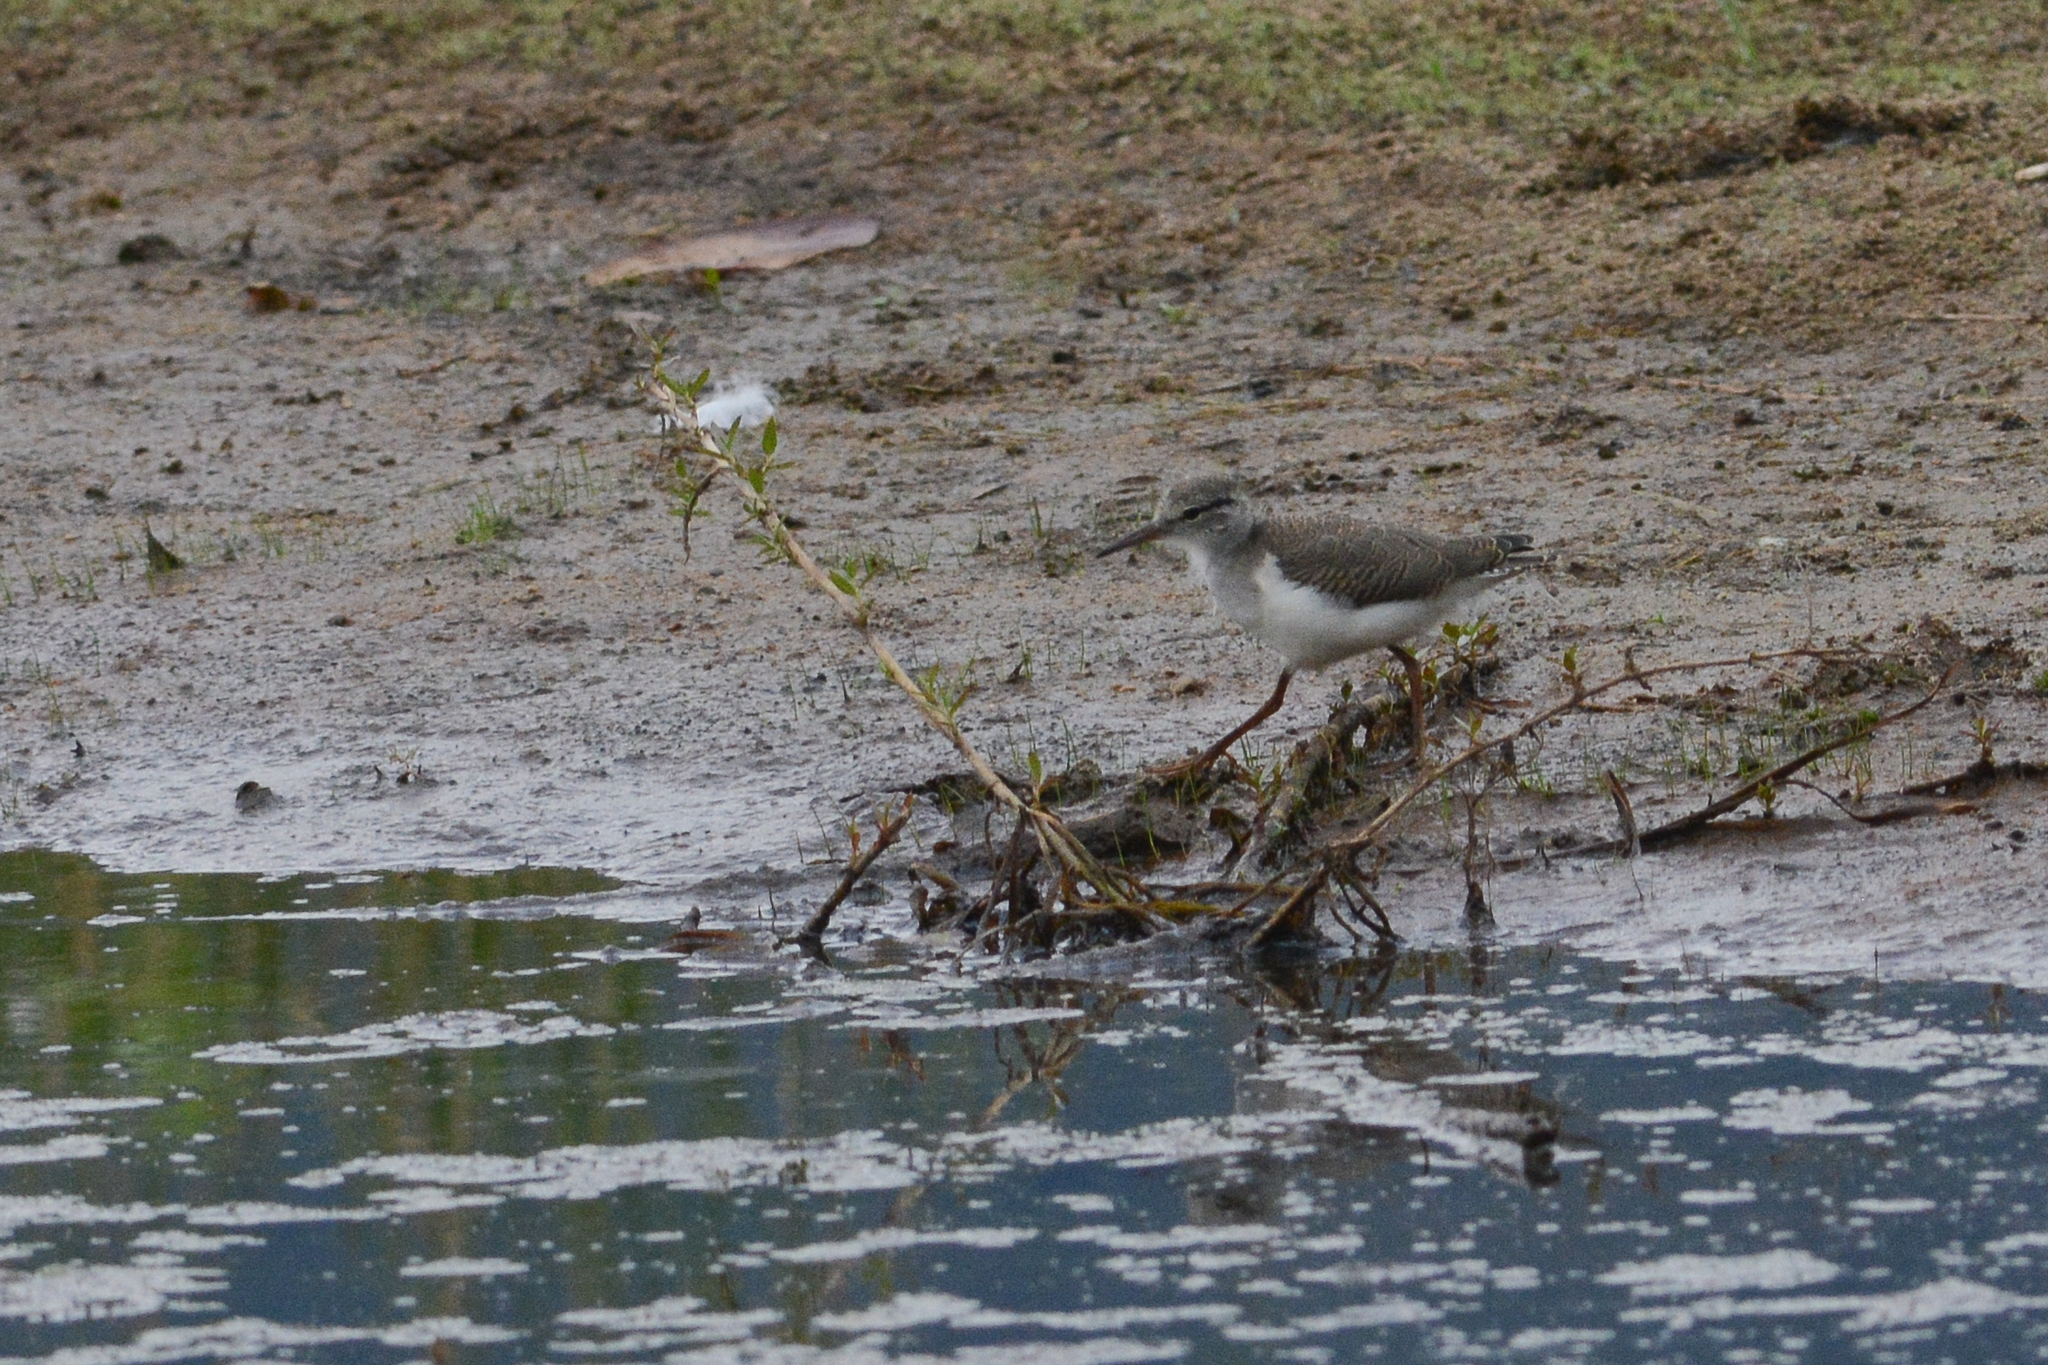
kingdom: Animalia
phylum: Chordata
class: Aves
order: Charadriiformes
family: Scolopacidae
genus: Actitis
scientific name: Actitis macularius
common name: Spotted sandpiper
